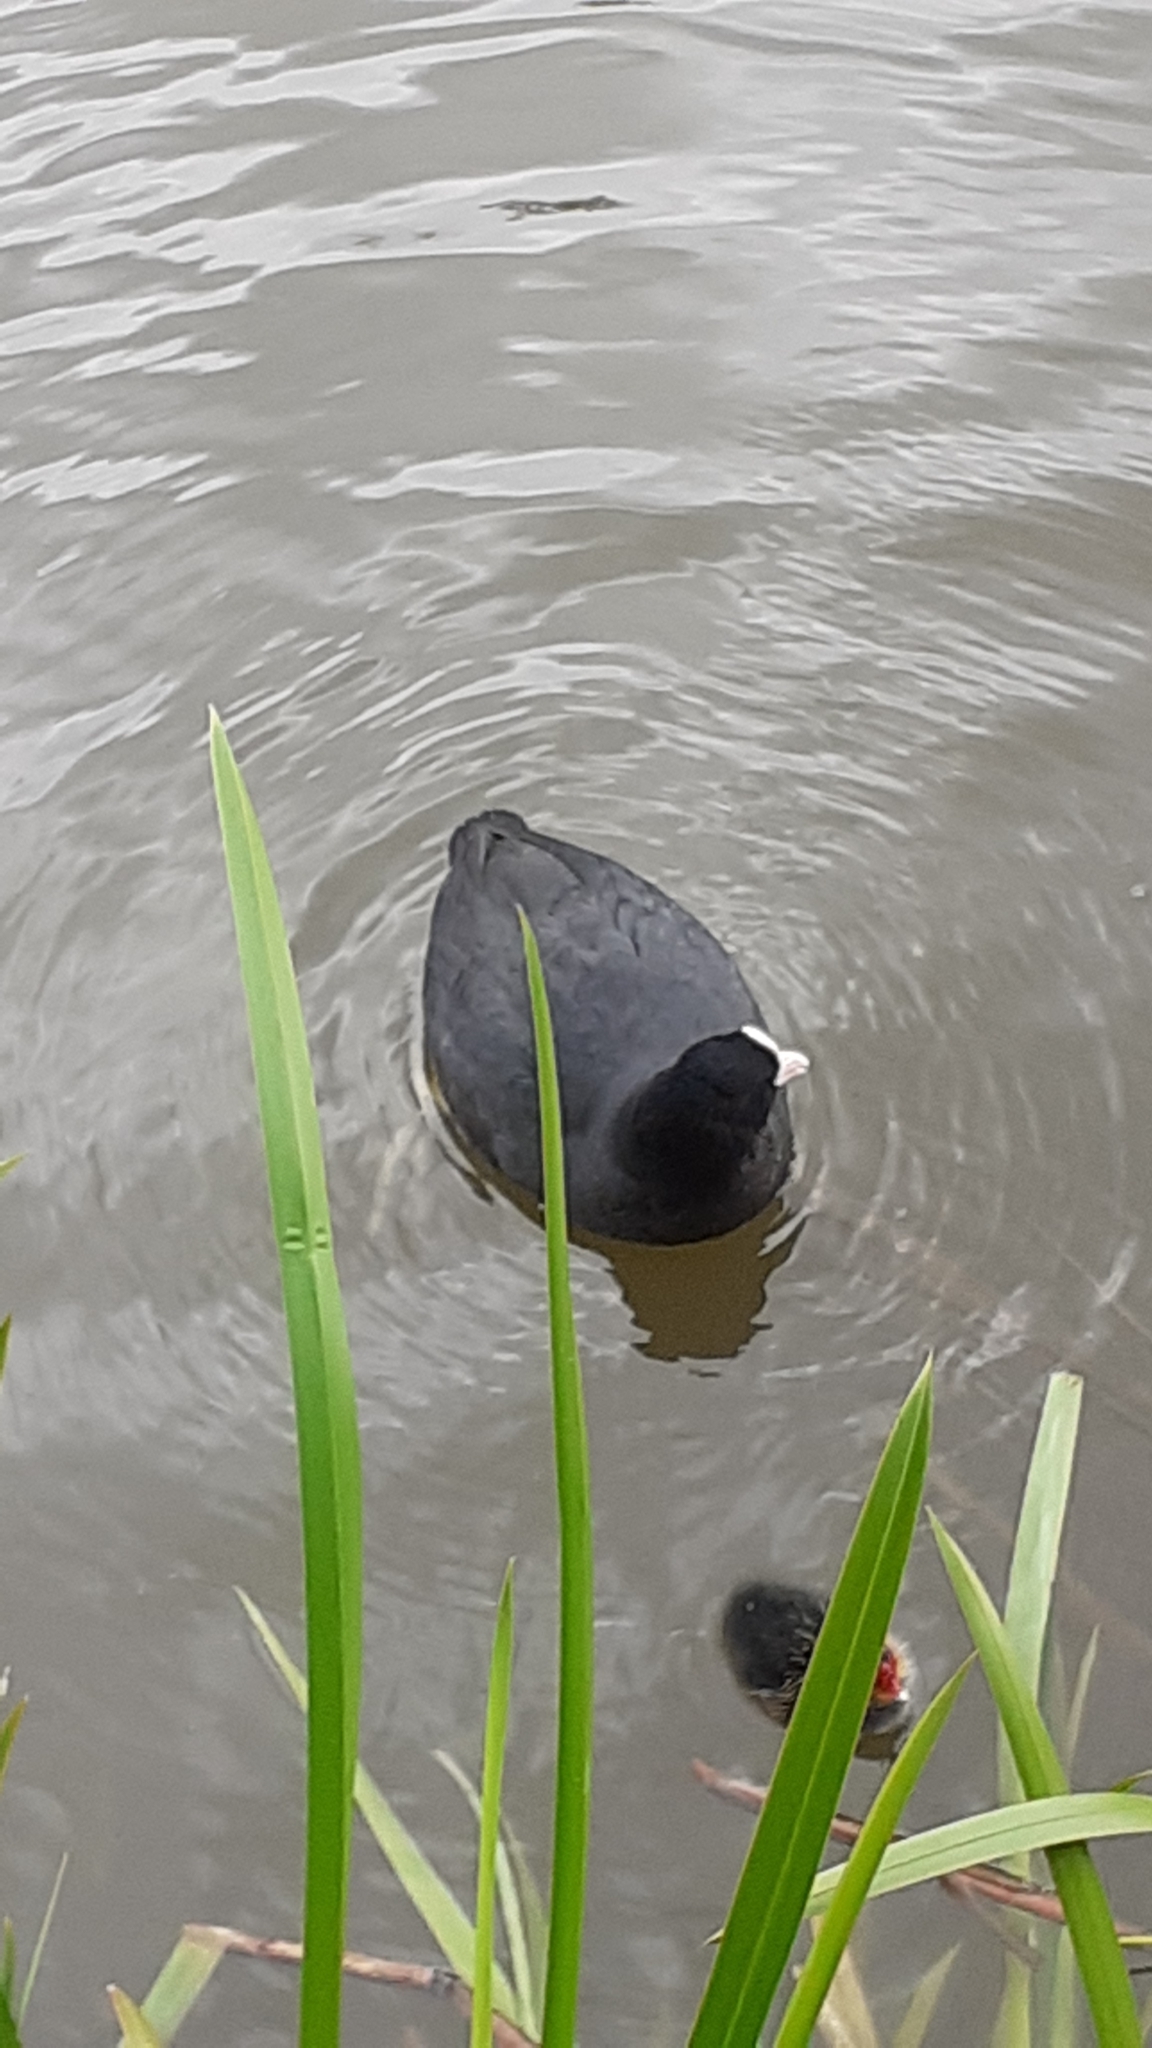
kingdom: Animalia
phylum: Chordata
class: Aves
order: Gruiformes
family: Rallidae
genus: Fulica
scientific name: Fulica atra
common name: Eurasian coot
